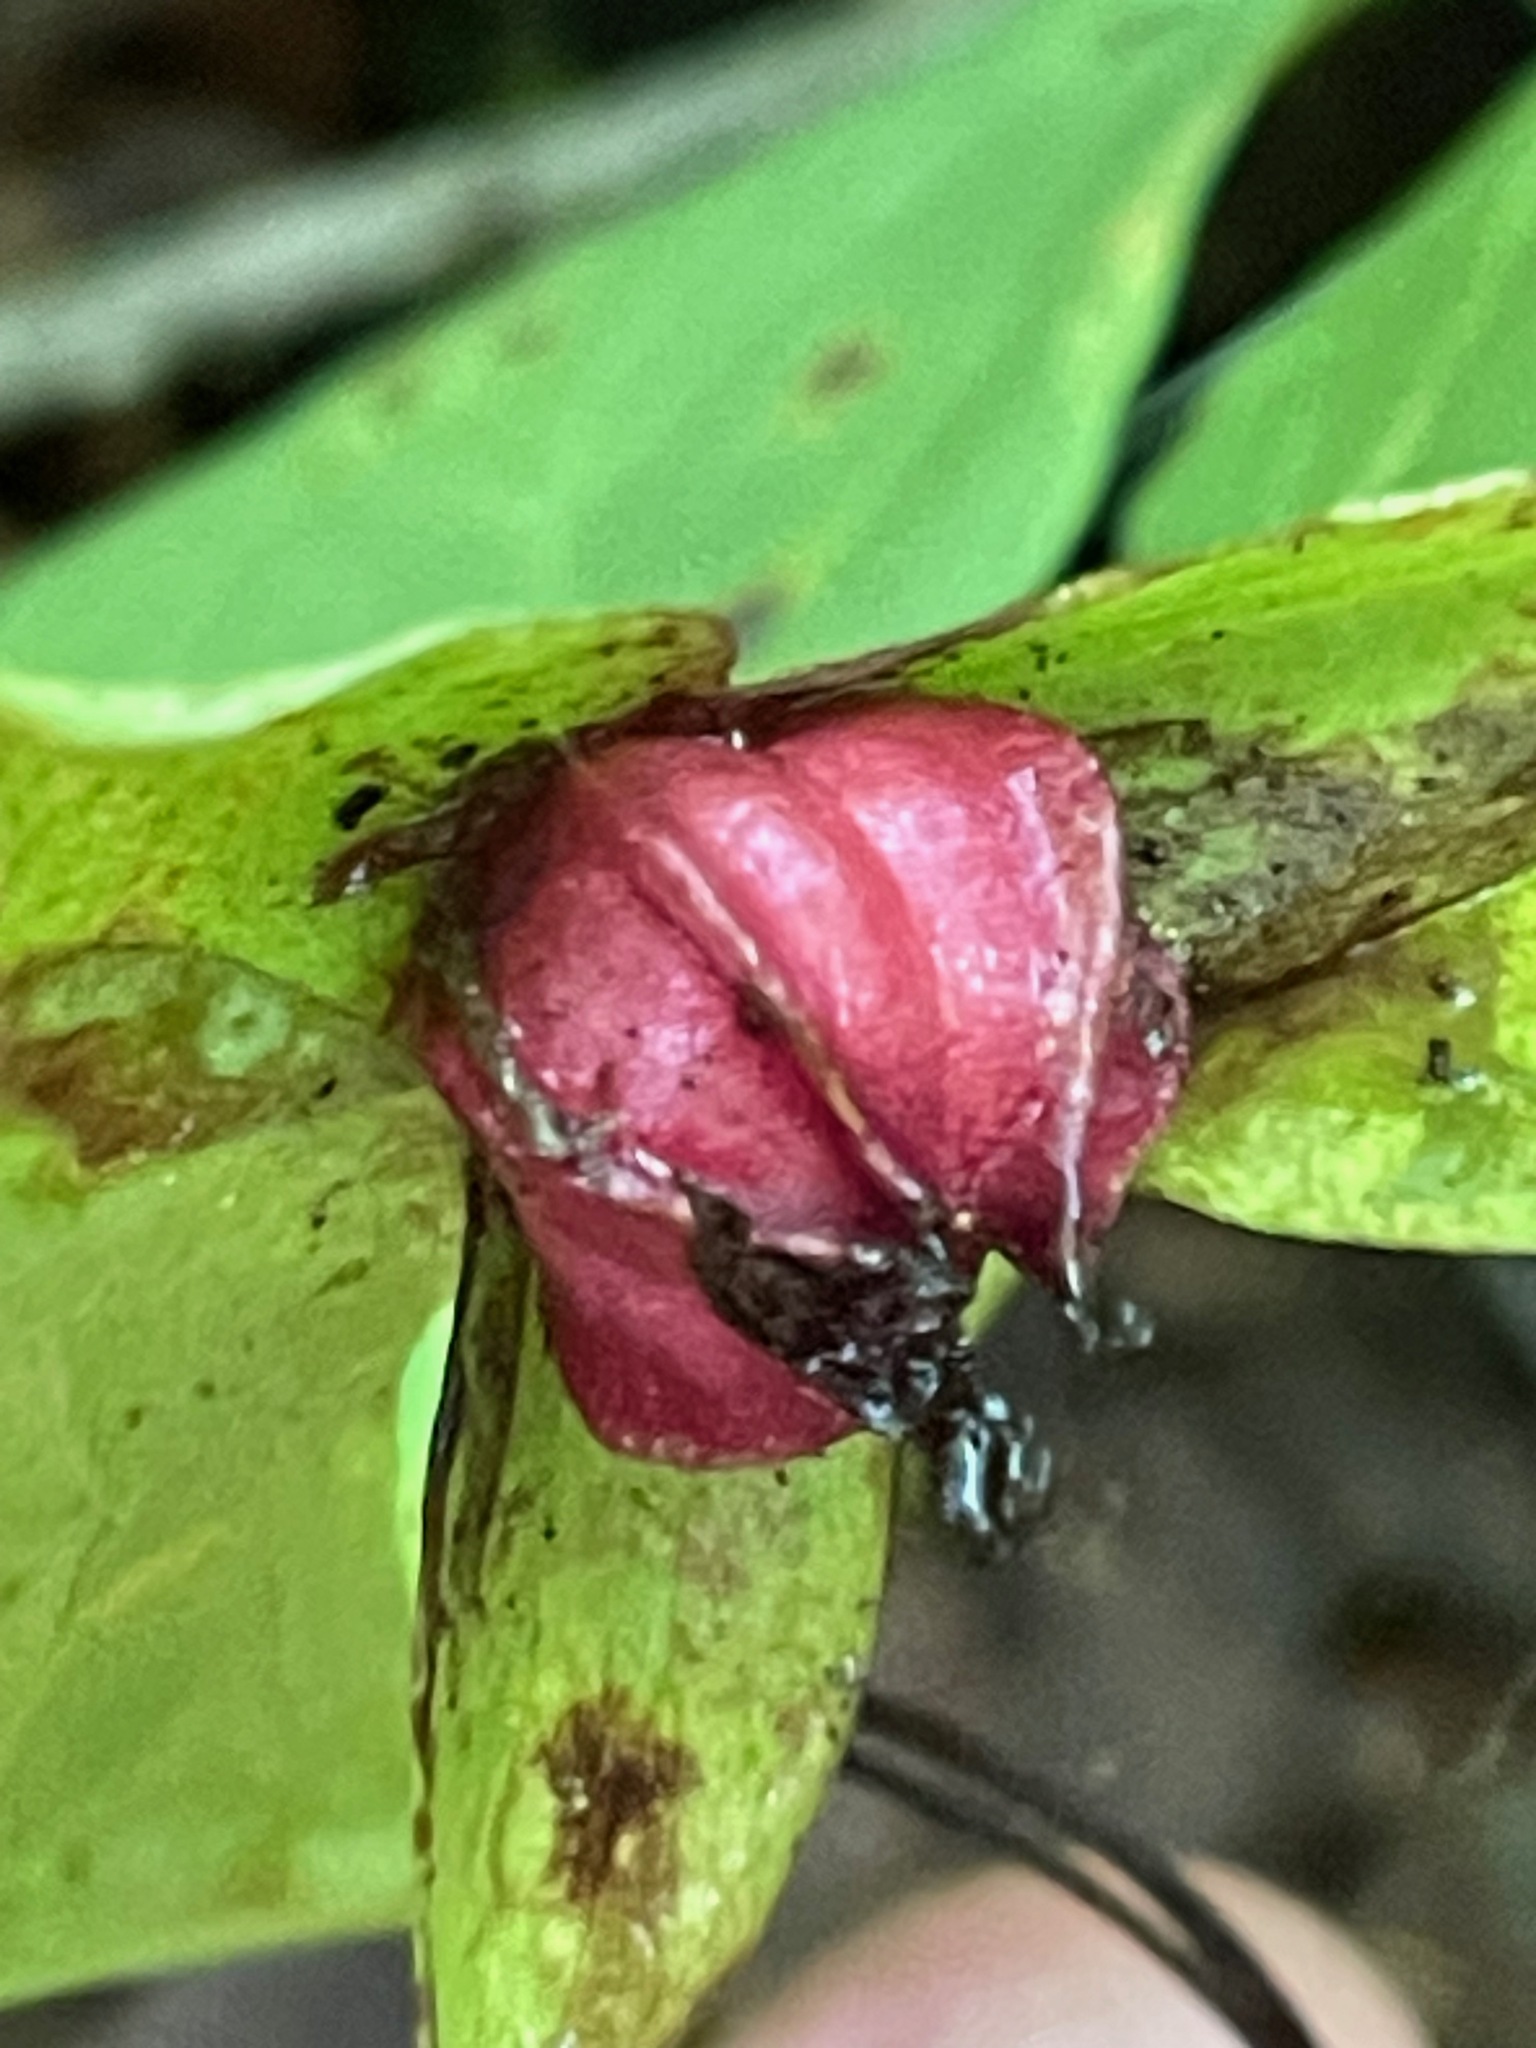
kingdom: Plantae
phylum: Tracheophyta
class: Liliopsida
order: Liliales
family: Melanthiaceae
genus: Trillium
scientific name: Trillium erectum
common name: Purple trillium
